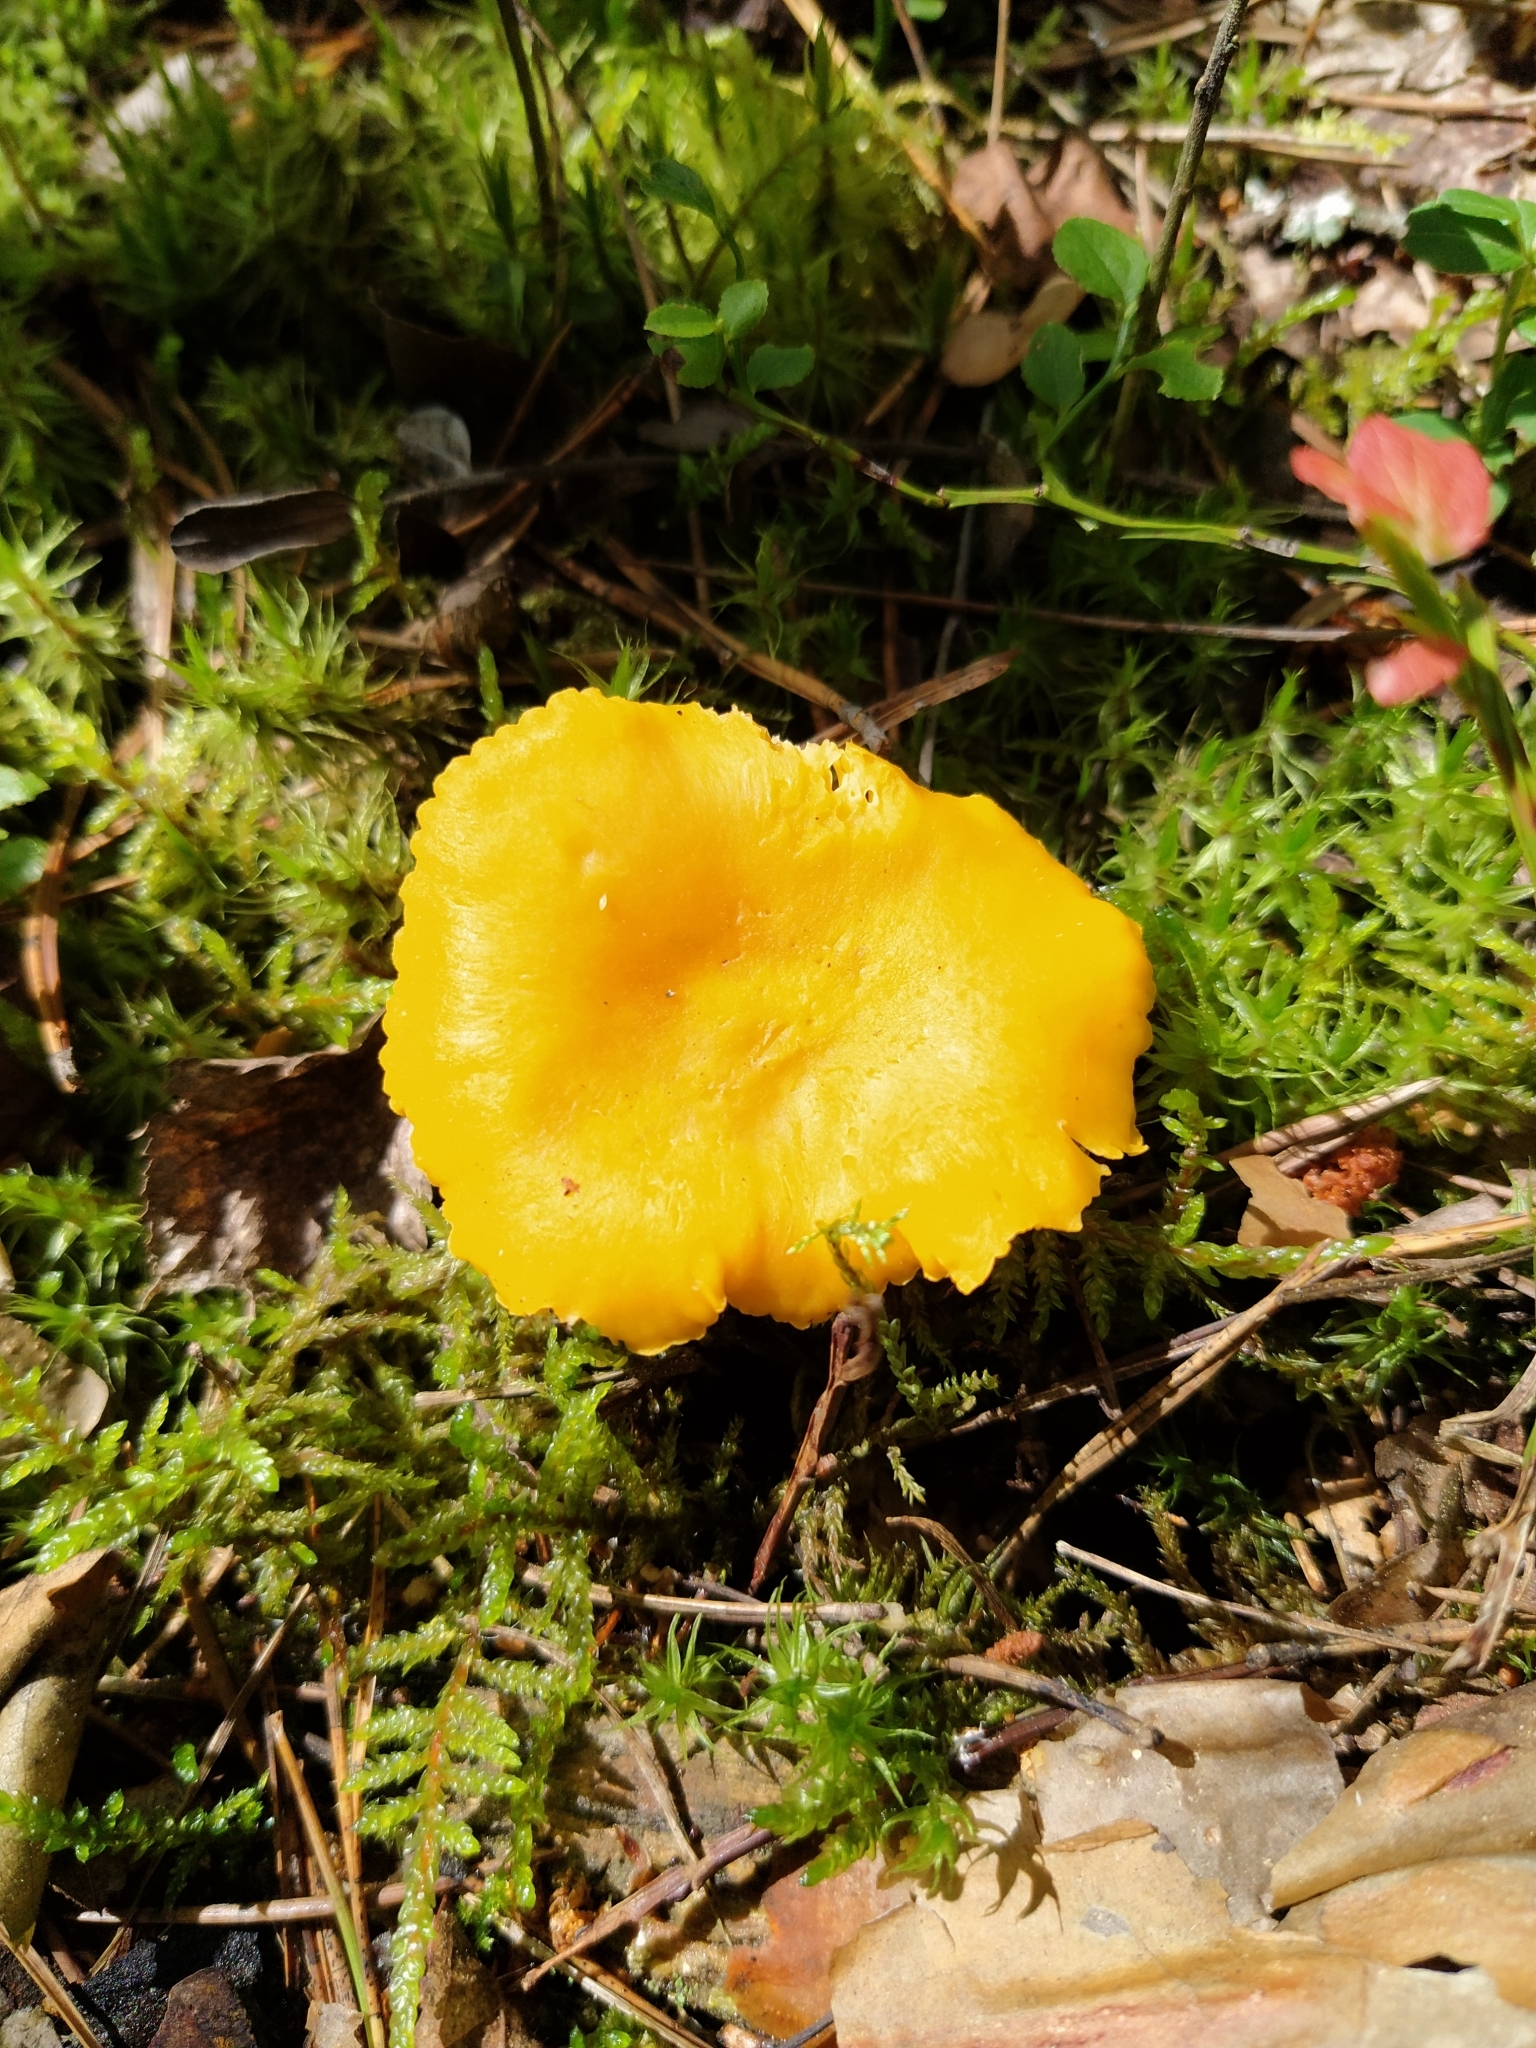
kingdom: Fungi
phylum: Basidiomycota
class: Agaricomycetes
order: Cantharellales
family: Hydnaceae
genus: Cantharellus
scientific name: Cantharellus cibarius
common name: Chanterelle
